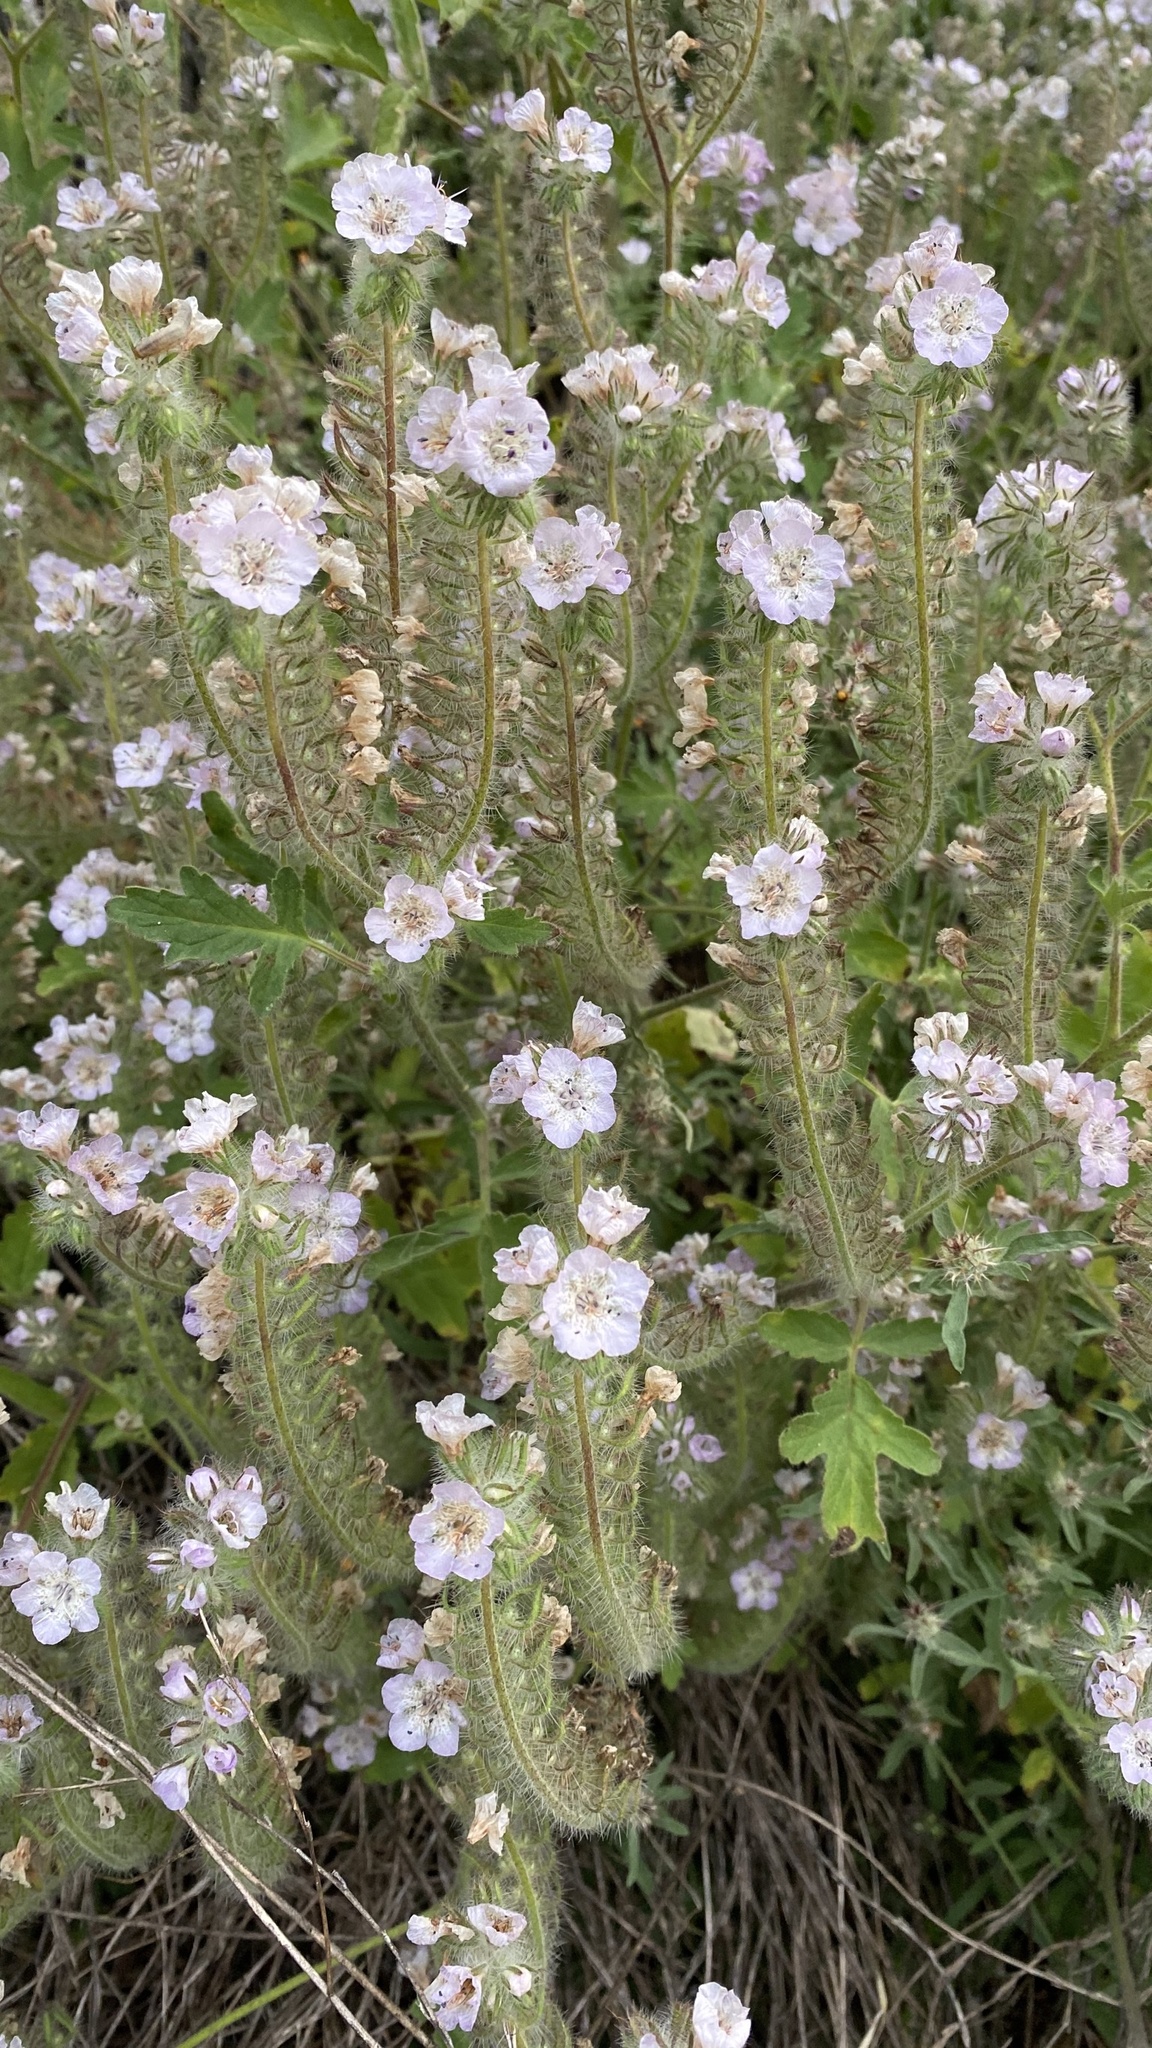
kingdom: Plantae
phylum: Tracheophyta
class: Magnoliopsida
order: Boraginales
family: Hydrophyllaceae
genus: Phacelia
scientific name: Phacelia ramosissima
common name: Branching phacelia
